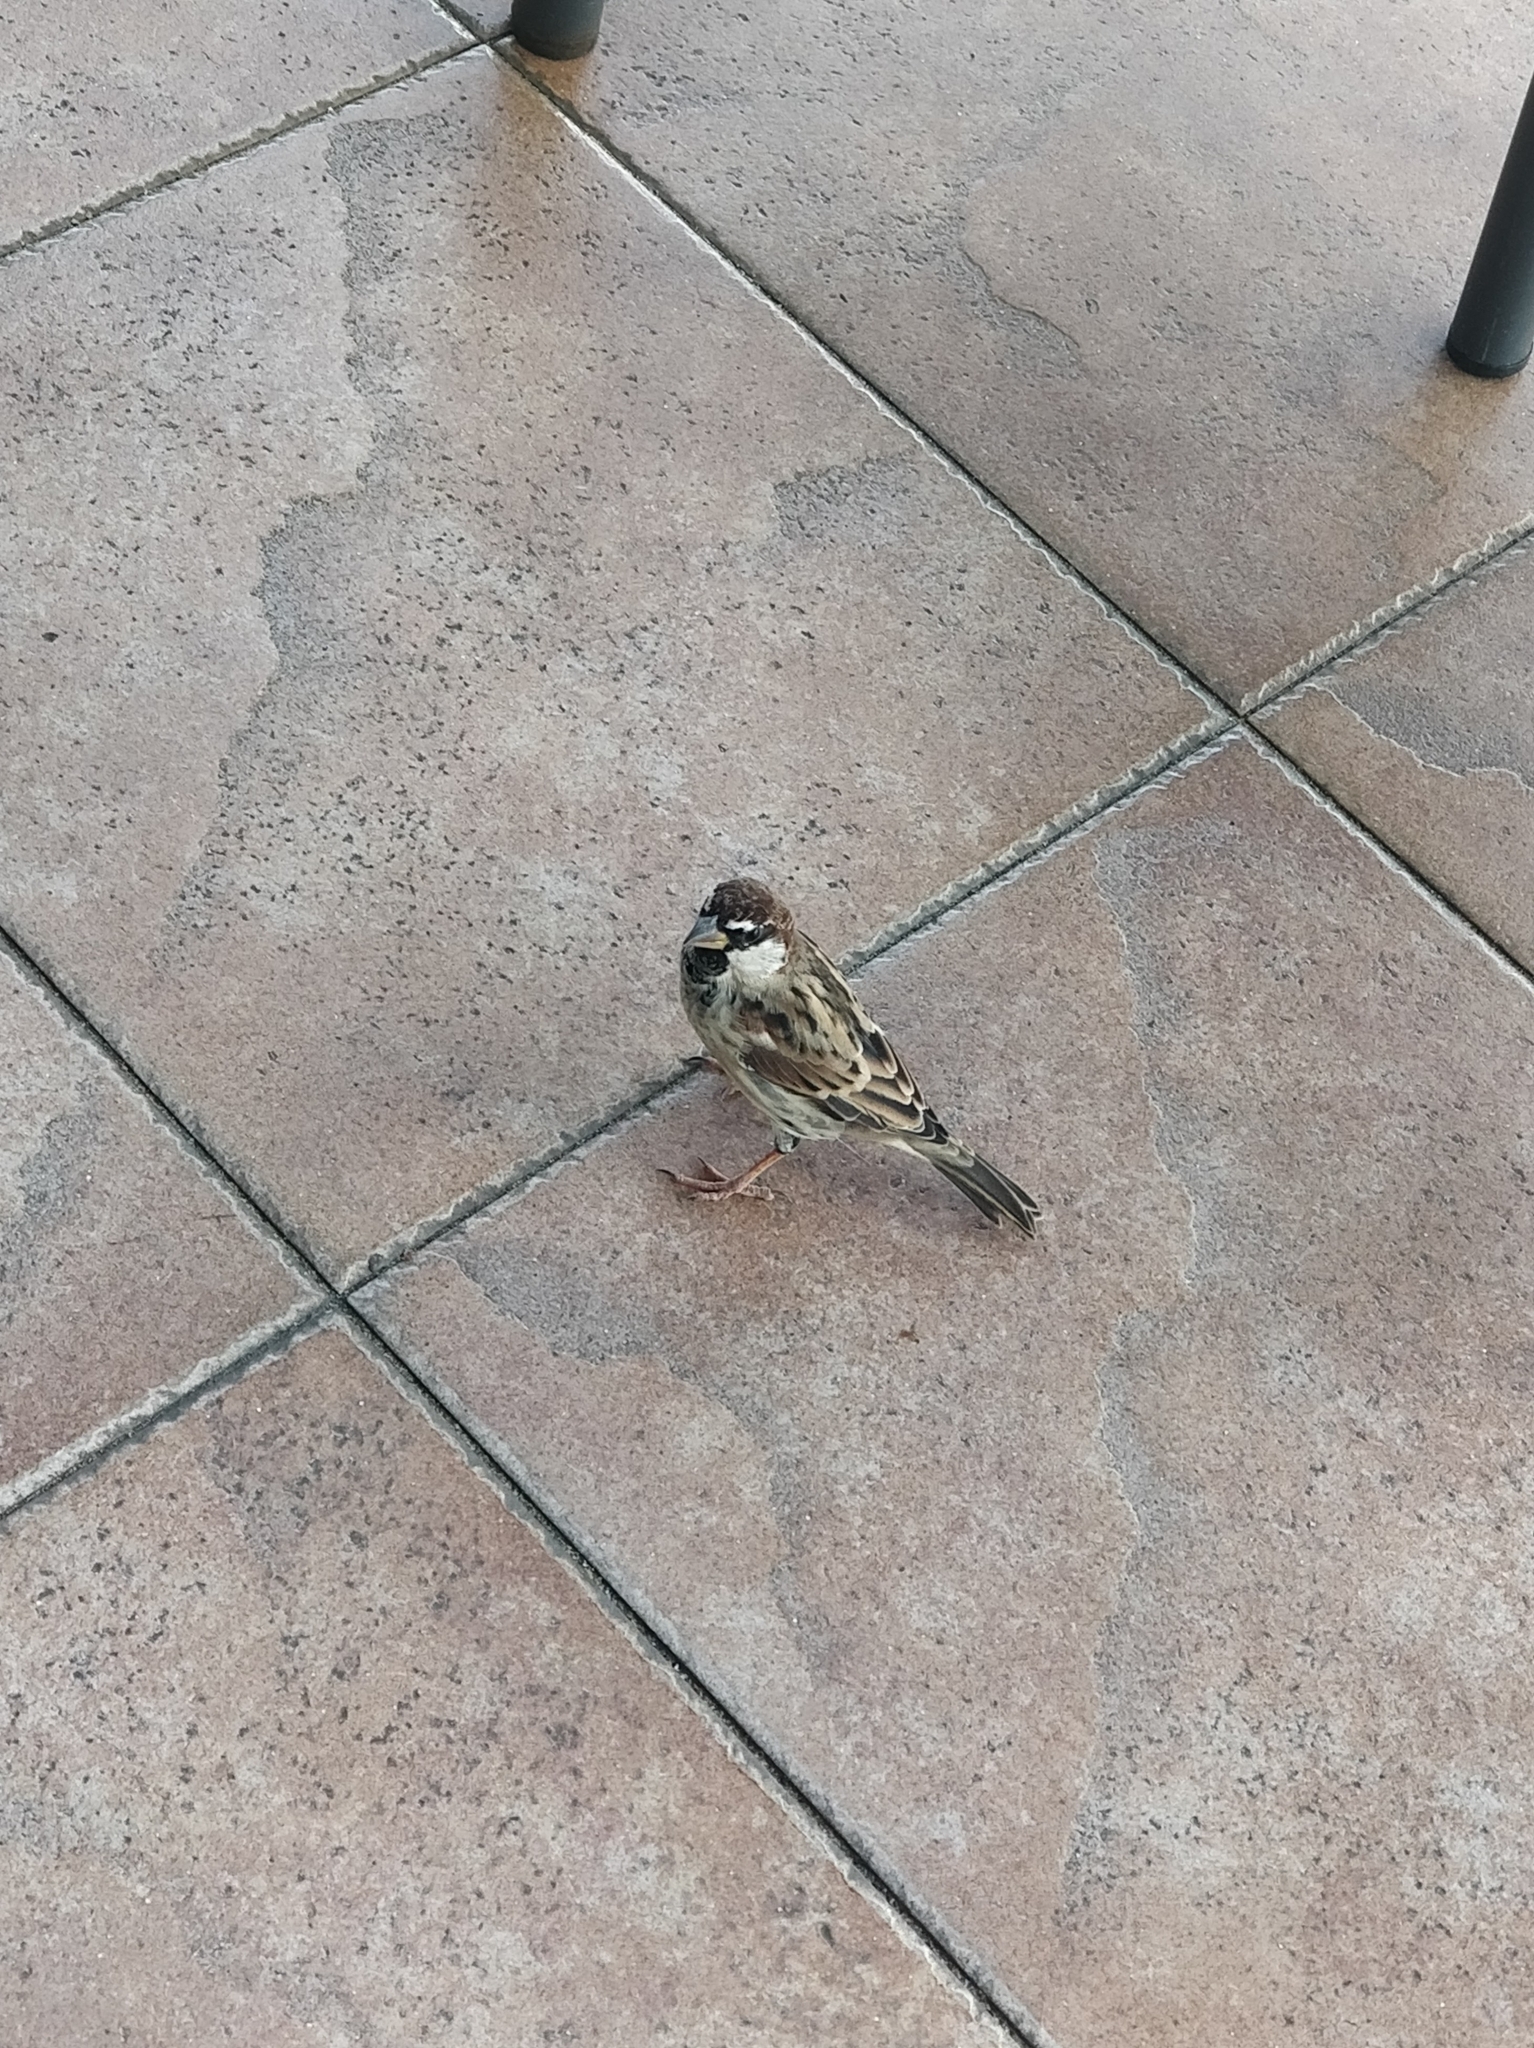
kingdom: Animalia
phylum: Chordata
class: Aves
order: Passeriformes
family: Passeridae
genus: Passer
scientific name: Passer hispaniolensis
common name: Spanish sparrow
